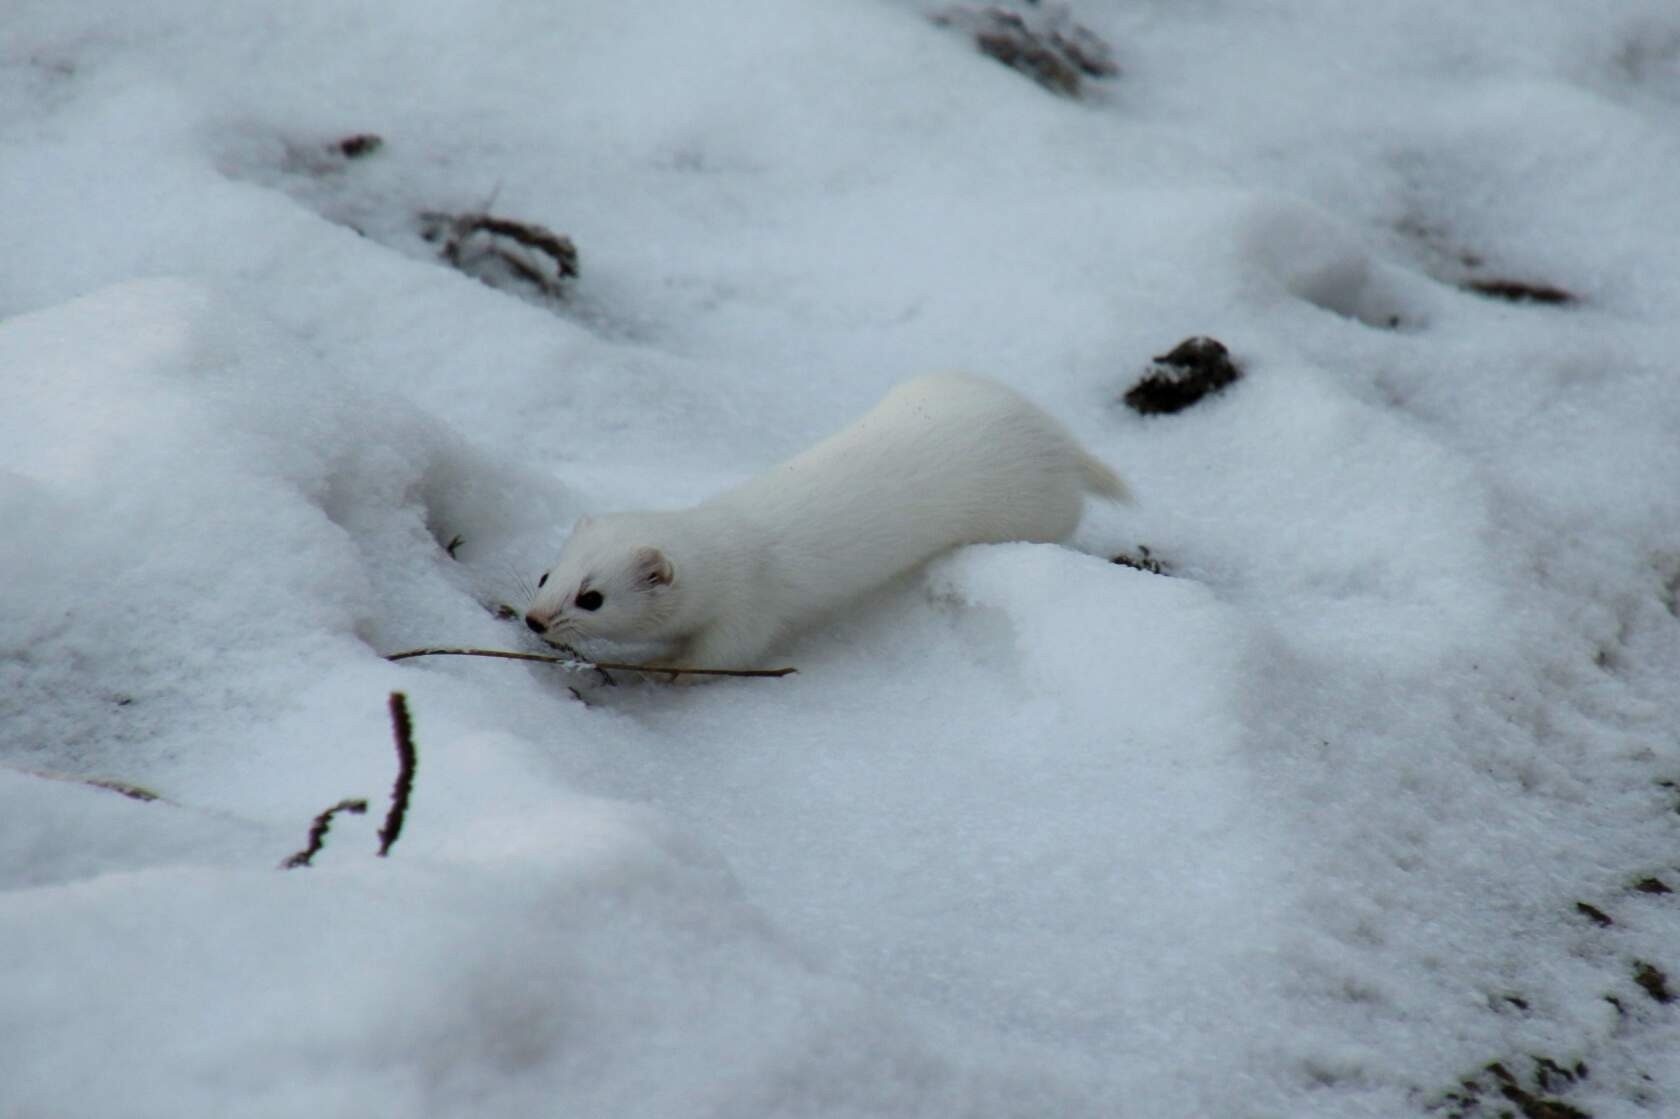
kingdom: Animalia
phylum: Chordata
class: Mammalia
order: Carnivora
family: Mustelidae
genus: Mustela
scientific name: Mustela nivalis
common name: Least weasel
